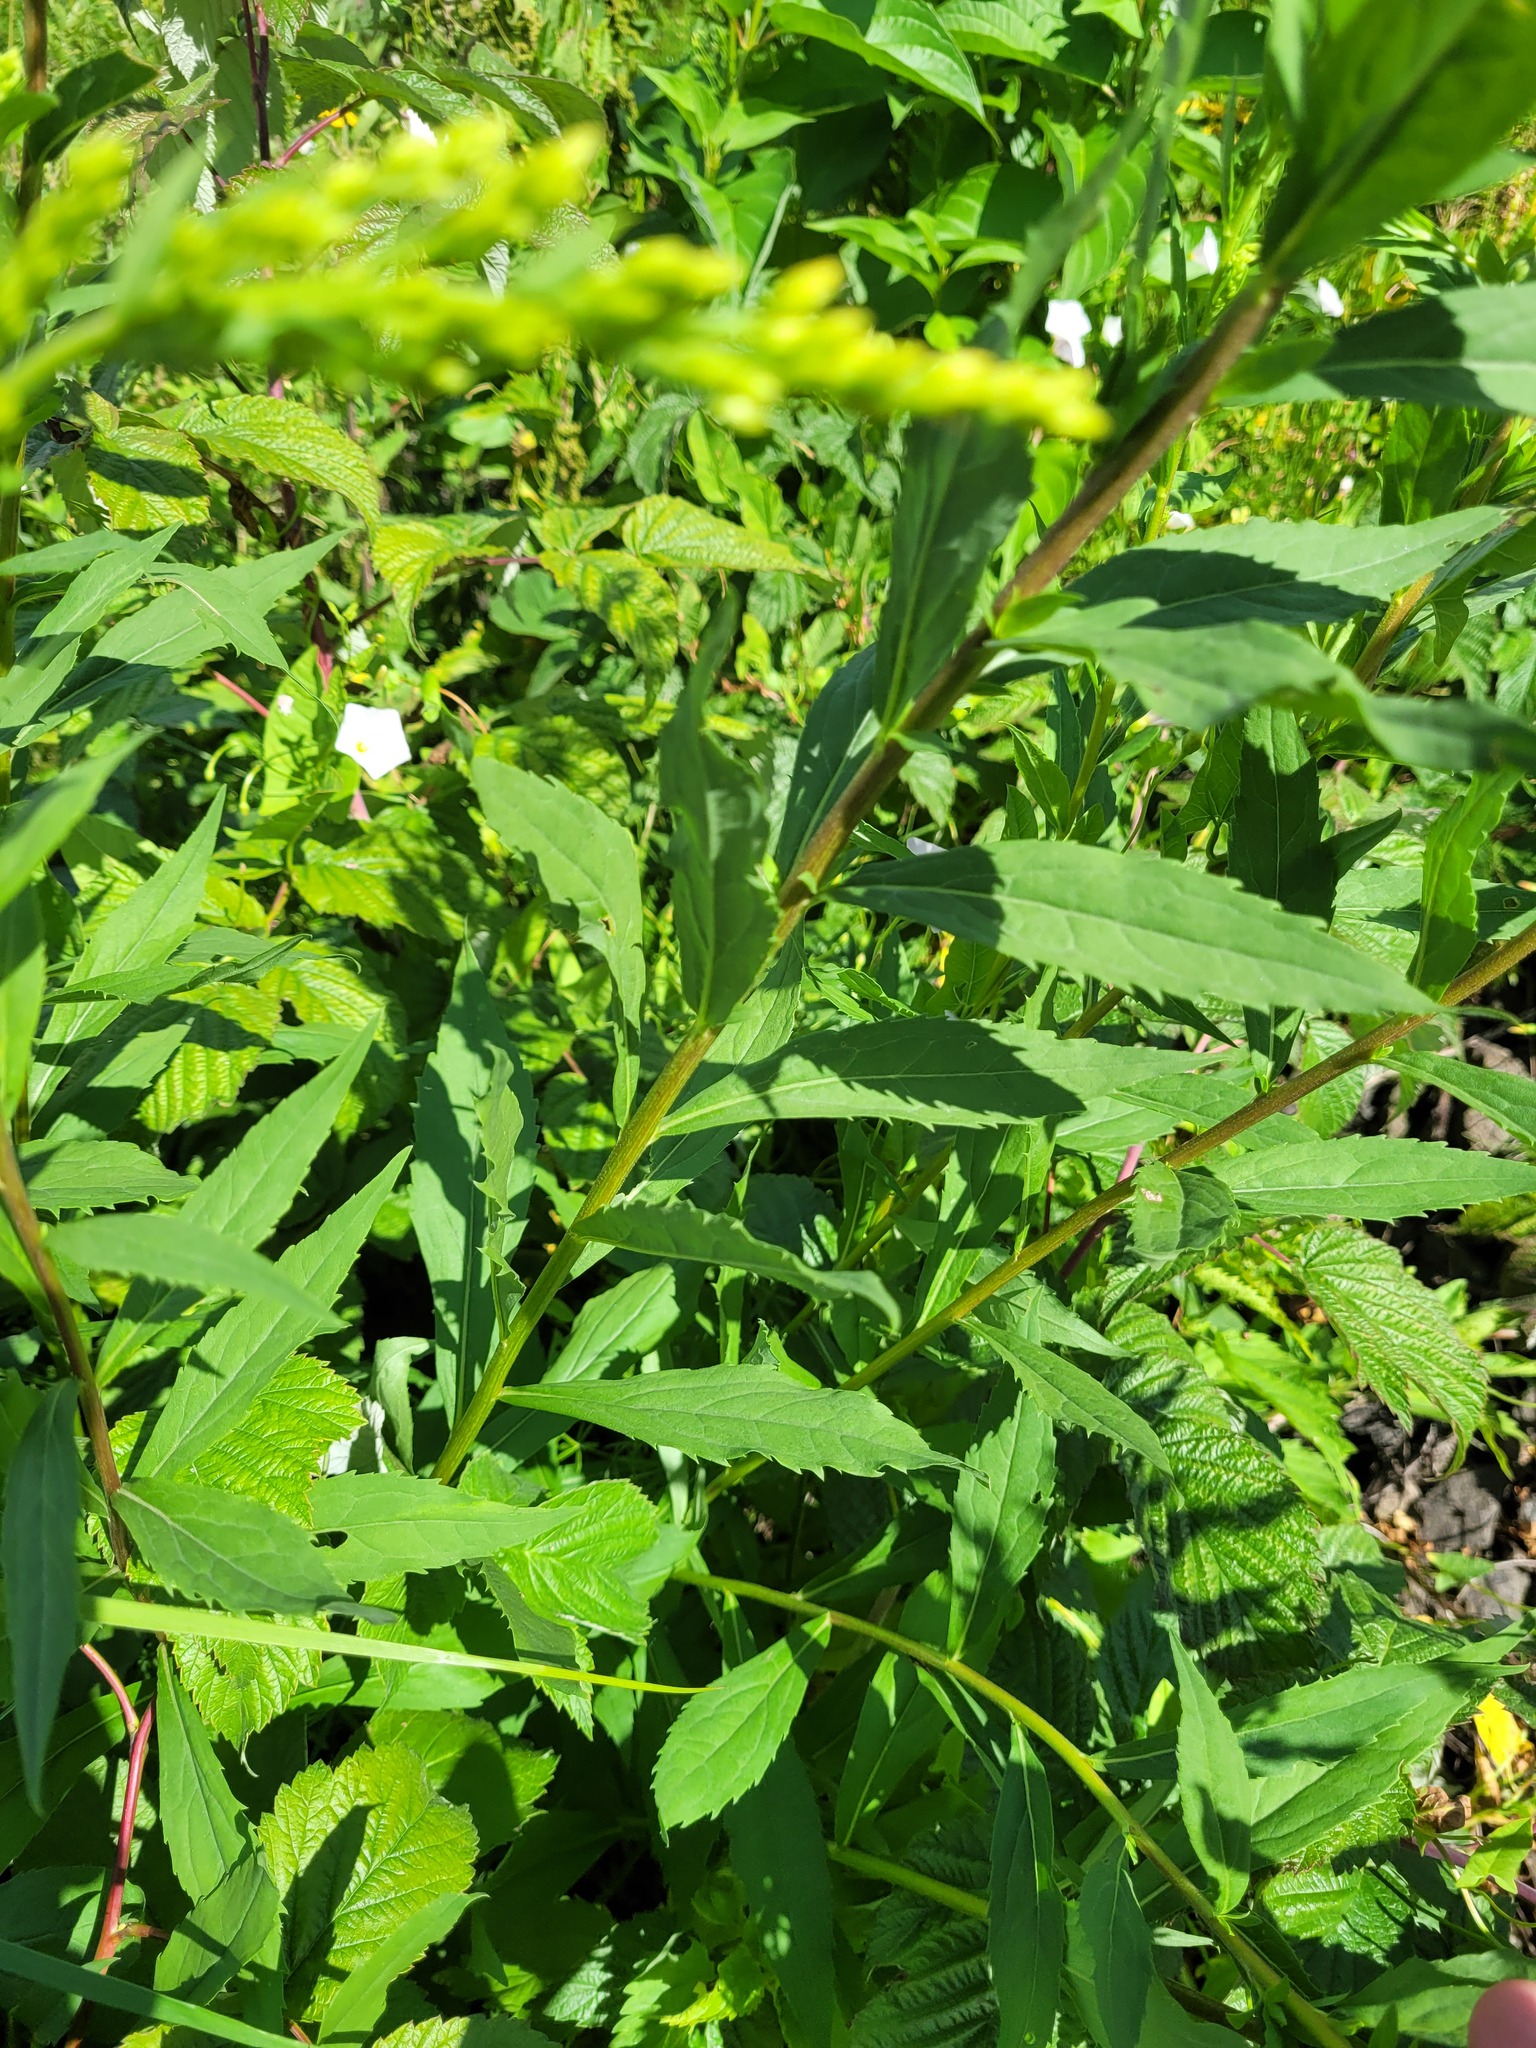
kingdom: Plantae
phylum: Tracheophyta
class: Magnoliopsida
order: Asterales
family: Asteraceae
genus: Solidago
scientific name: Solidago niederederi
